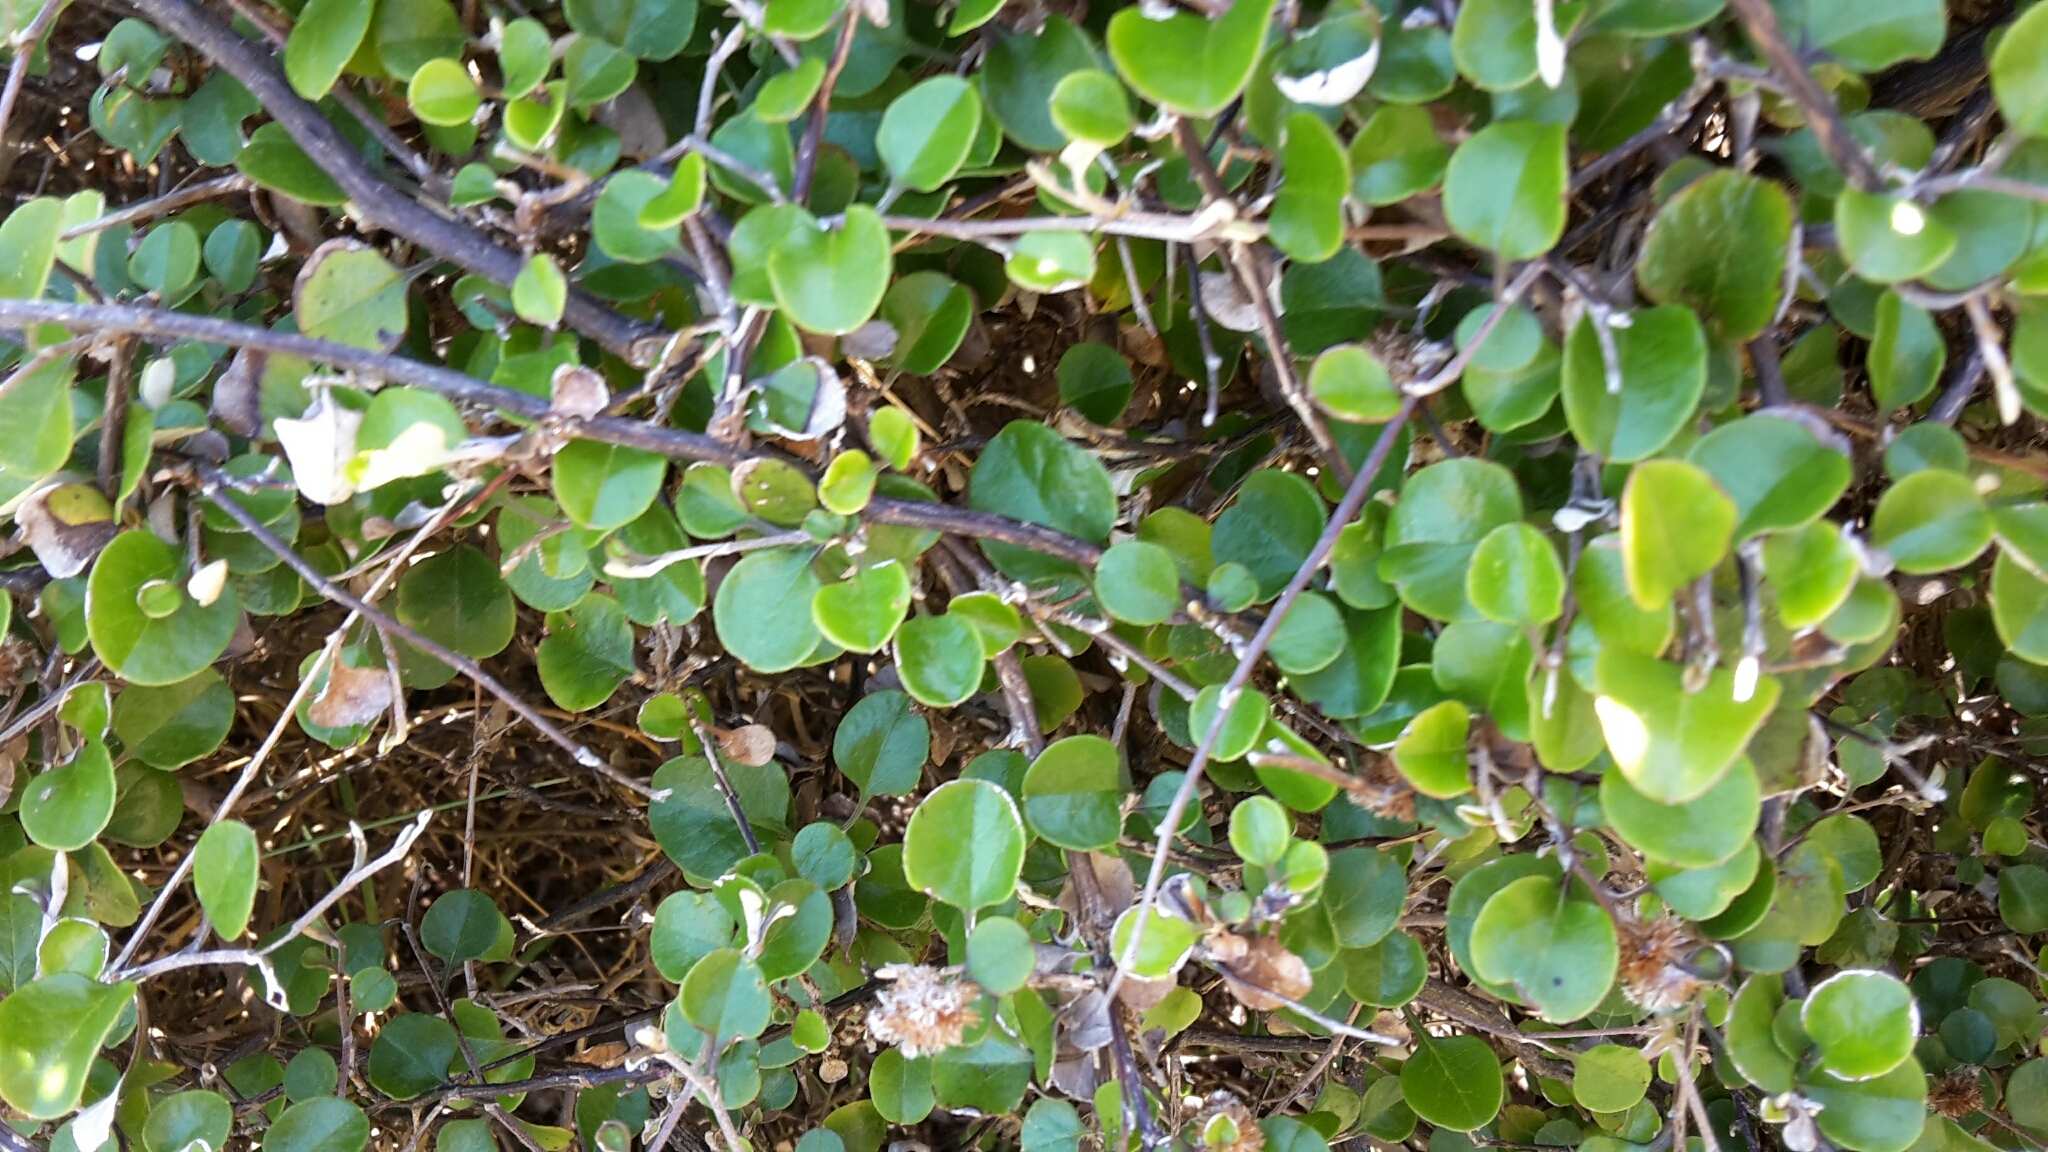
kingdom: Plantae
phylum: Tracheophyta
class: Magnoliopsida
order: Asterales
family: Asteraceae
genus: Ozothamnus
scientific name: Ozothamnus glomeratus
